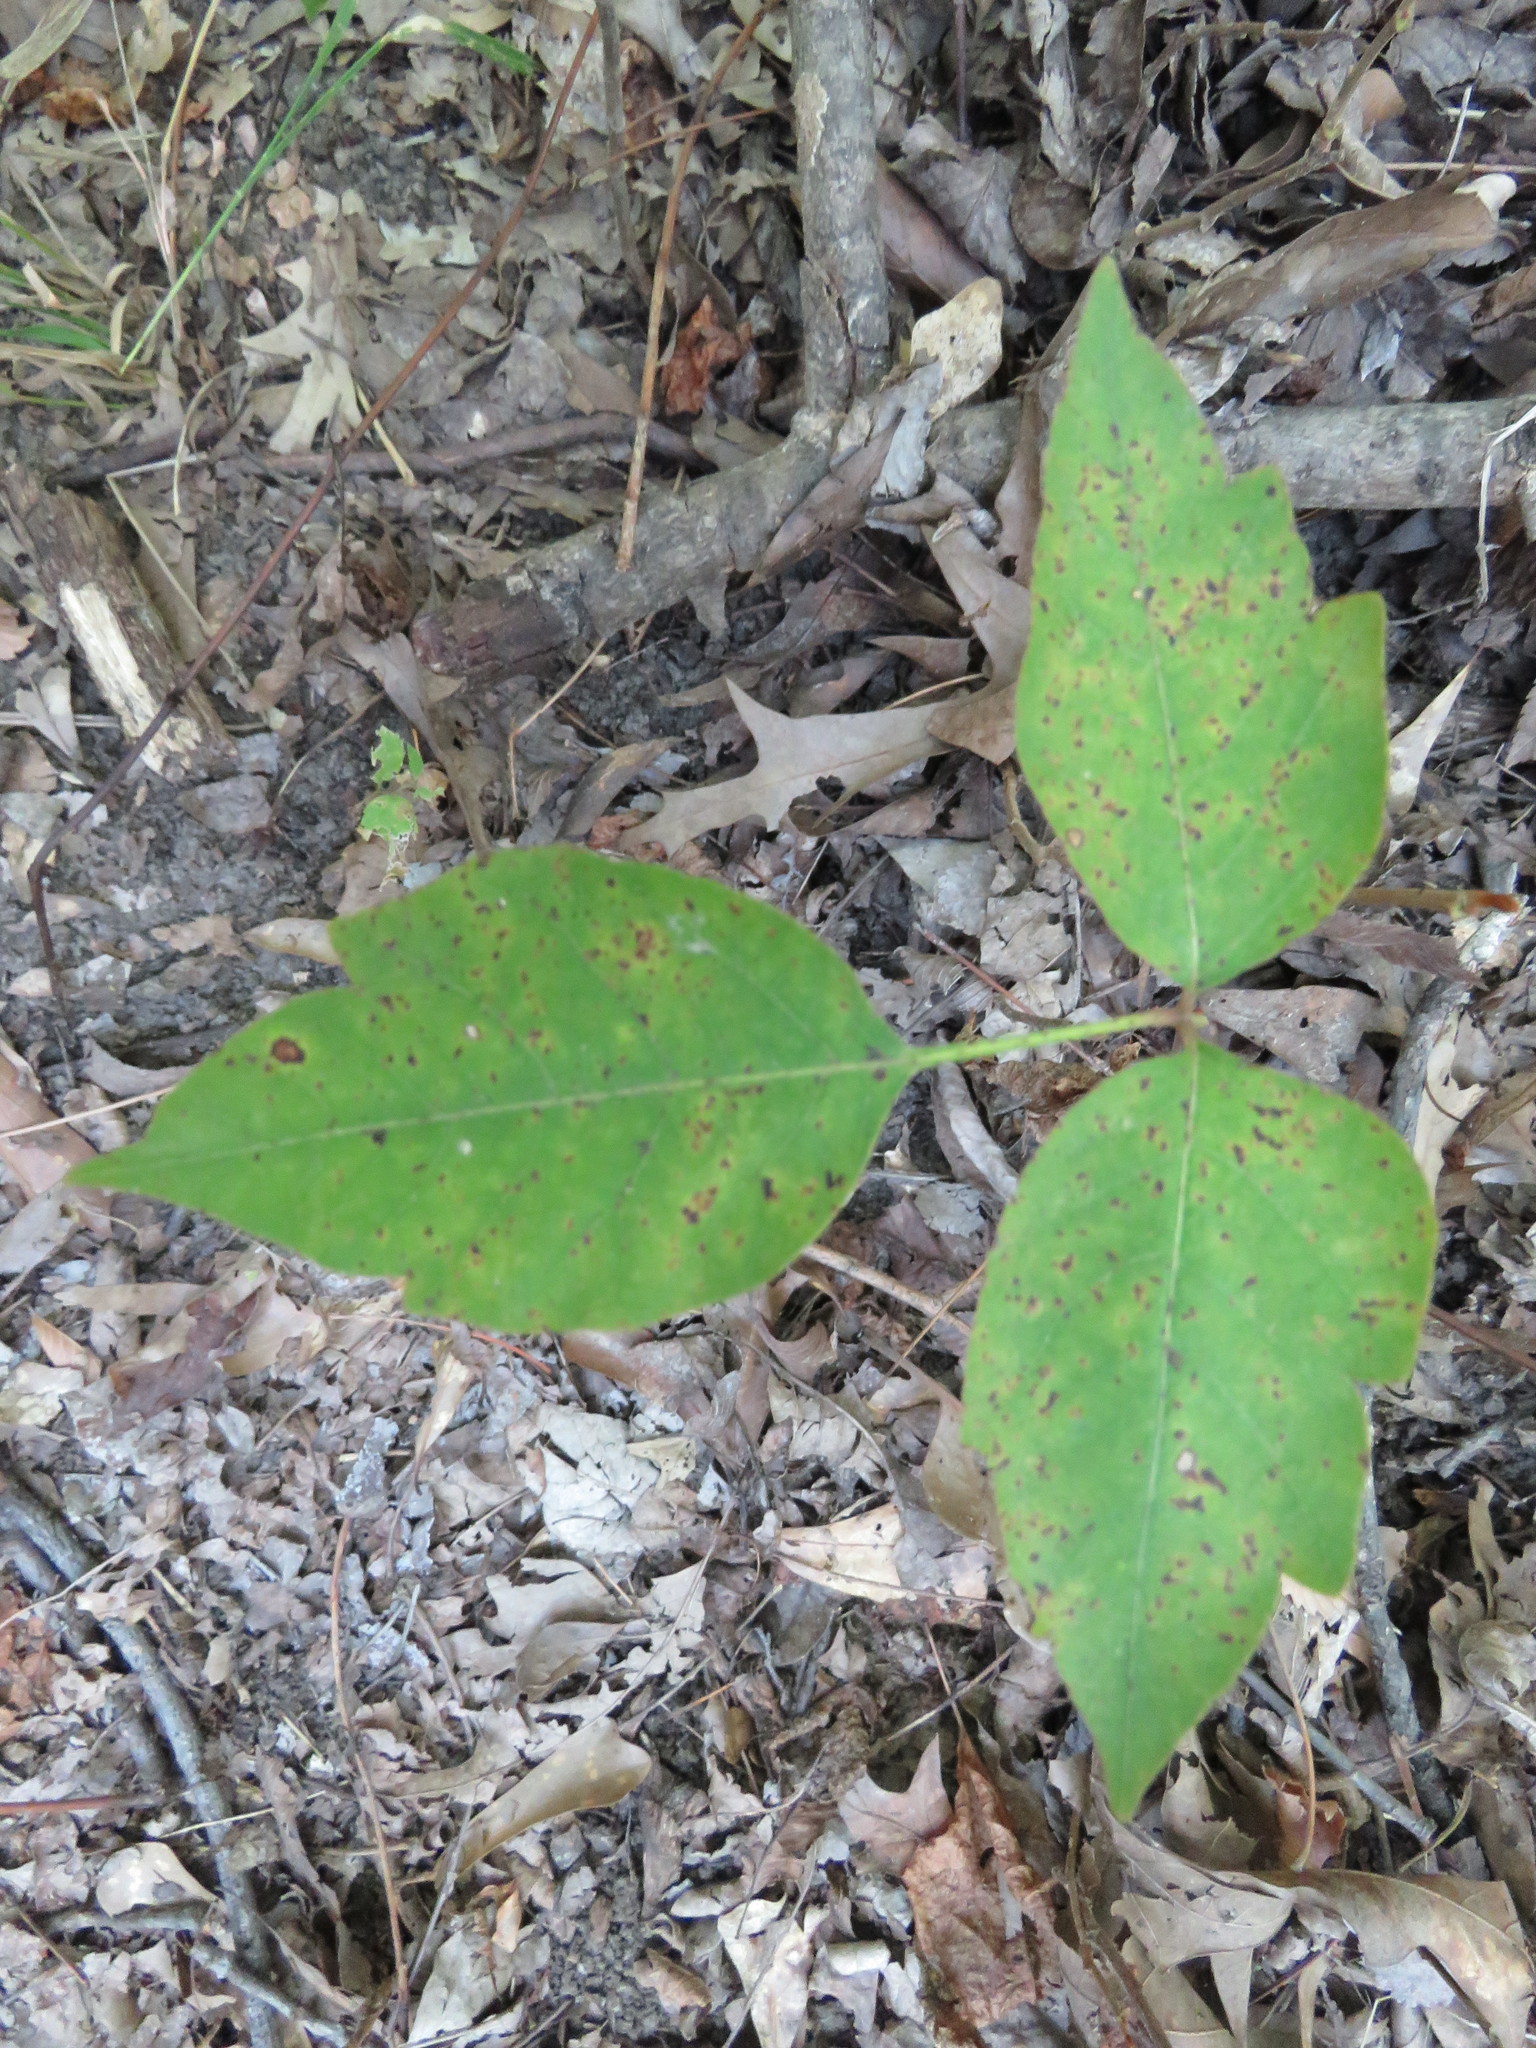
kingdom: Plantae
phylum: Tracheophyta
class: Magnoliopsida
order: Sapindales
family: Anacardiaceae
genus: Toxicodendron
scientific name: Toxicodendron radicans
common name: Poison ivy
